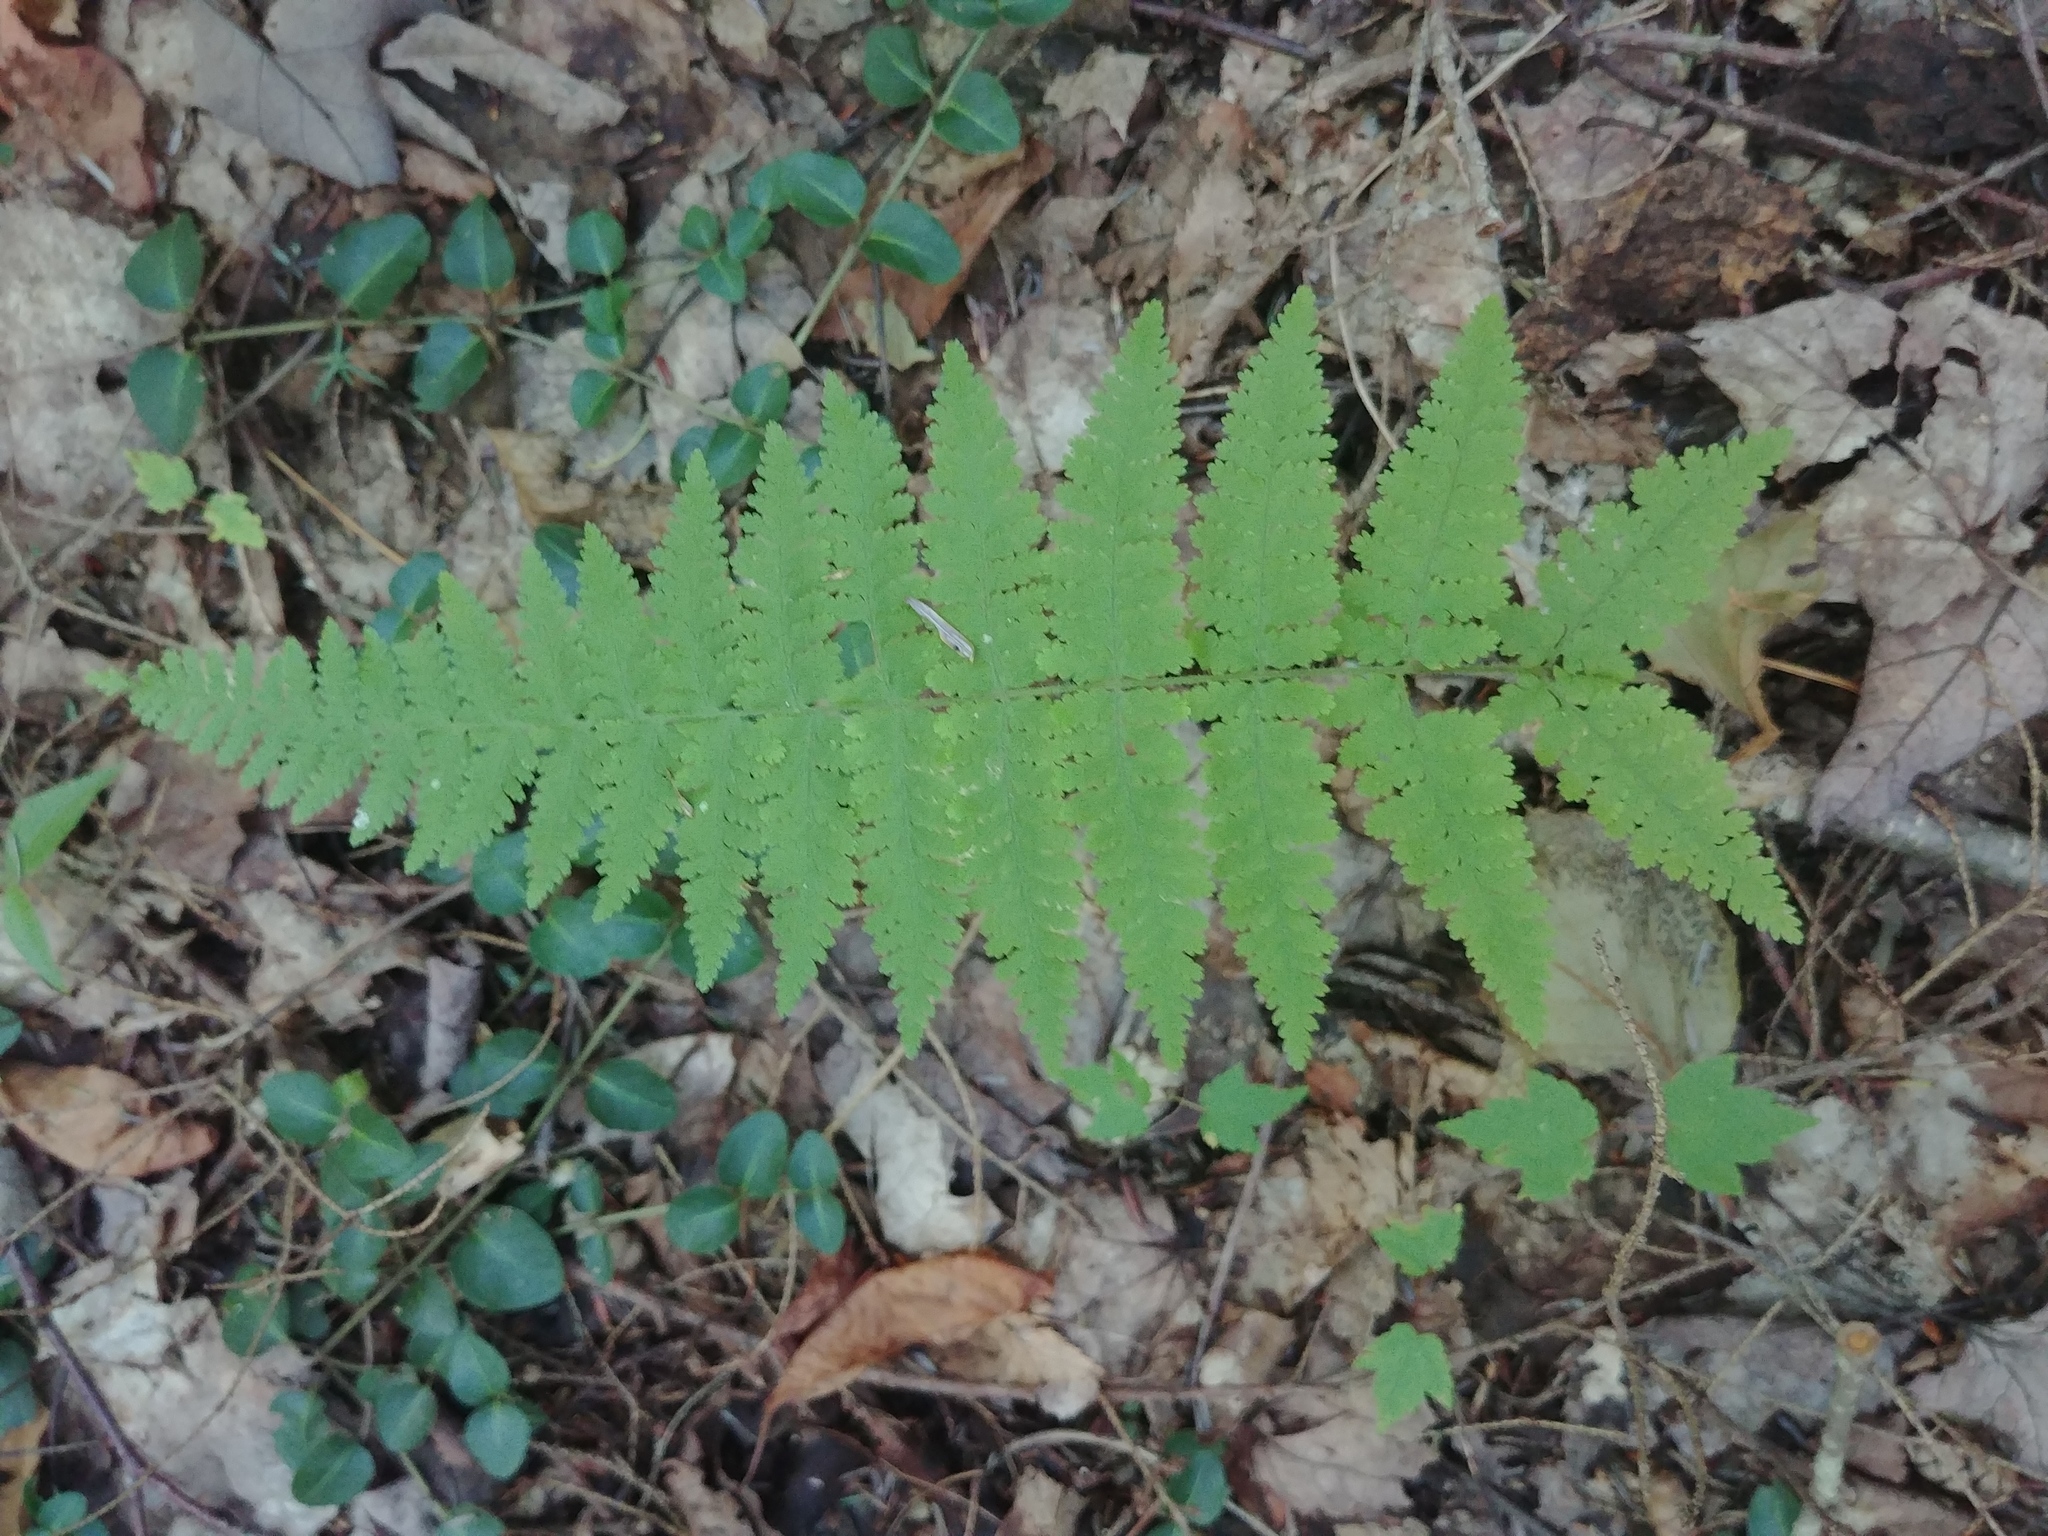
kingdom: Plantae
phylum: Tracheophyta
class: Polypodiopsida
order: Polypodiales
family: Dennstaedtiaceae
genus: Sitobolium
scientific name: Sitobolium punctilobum
